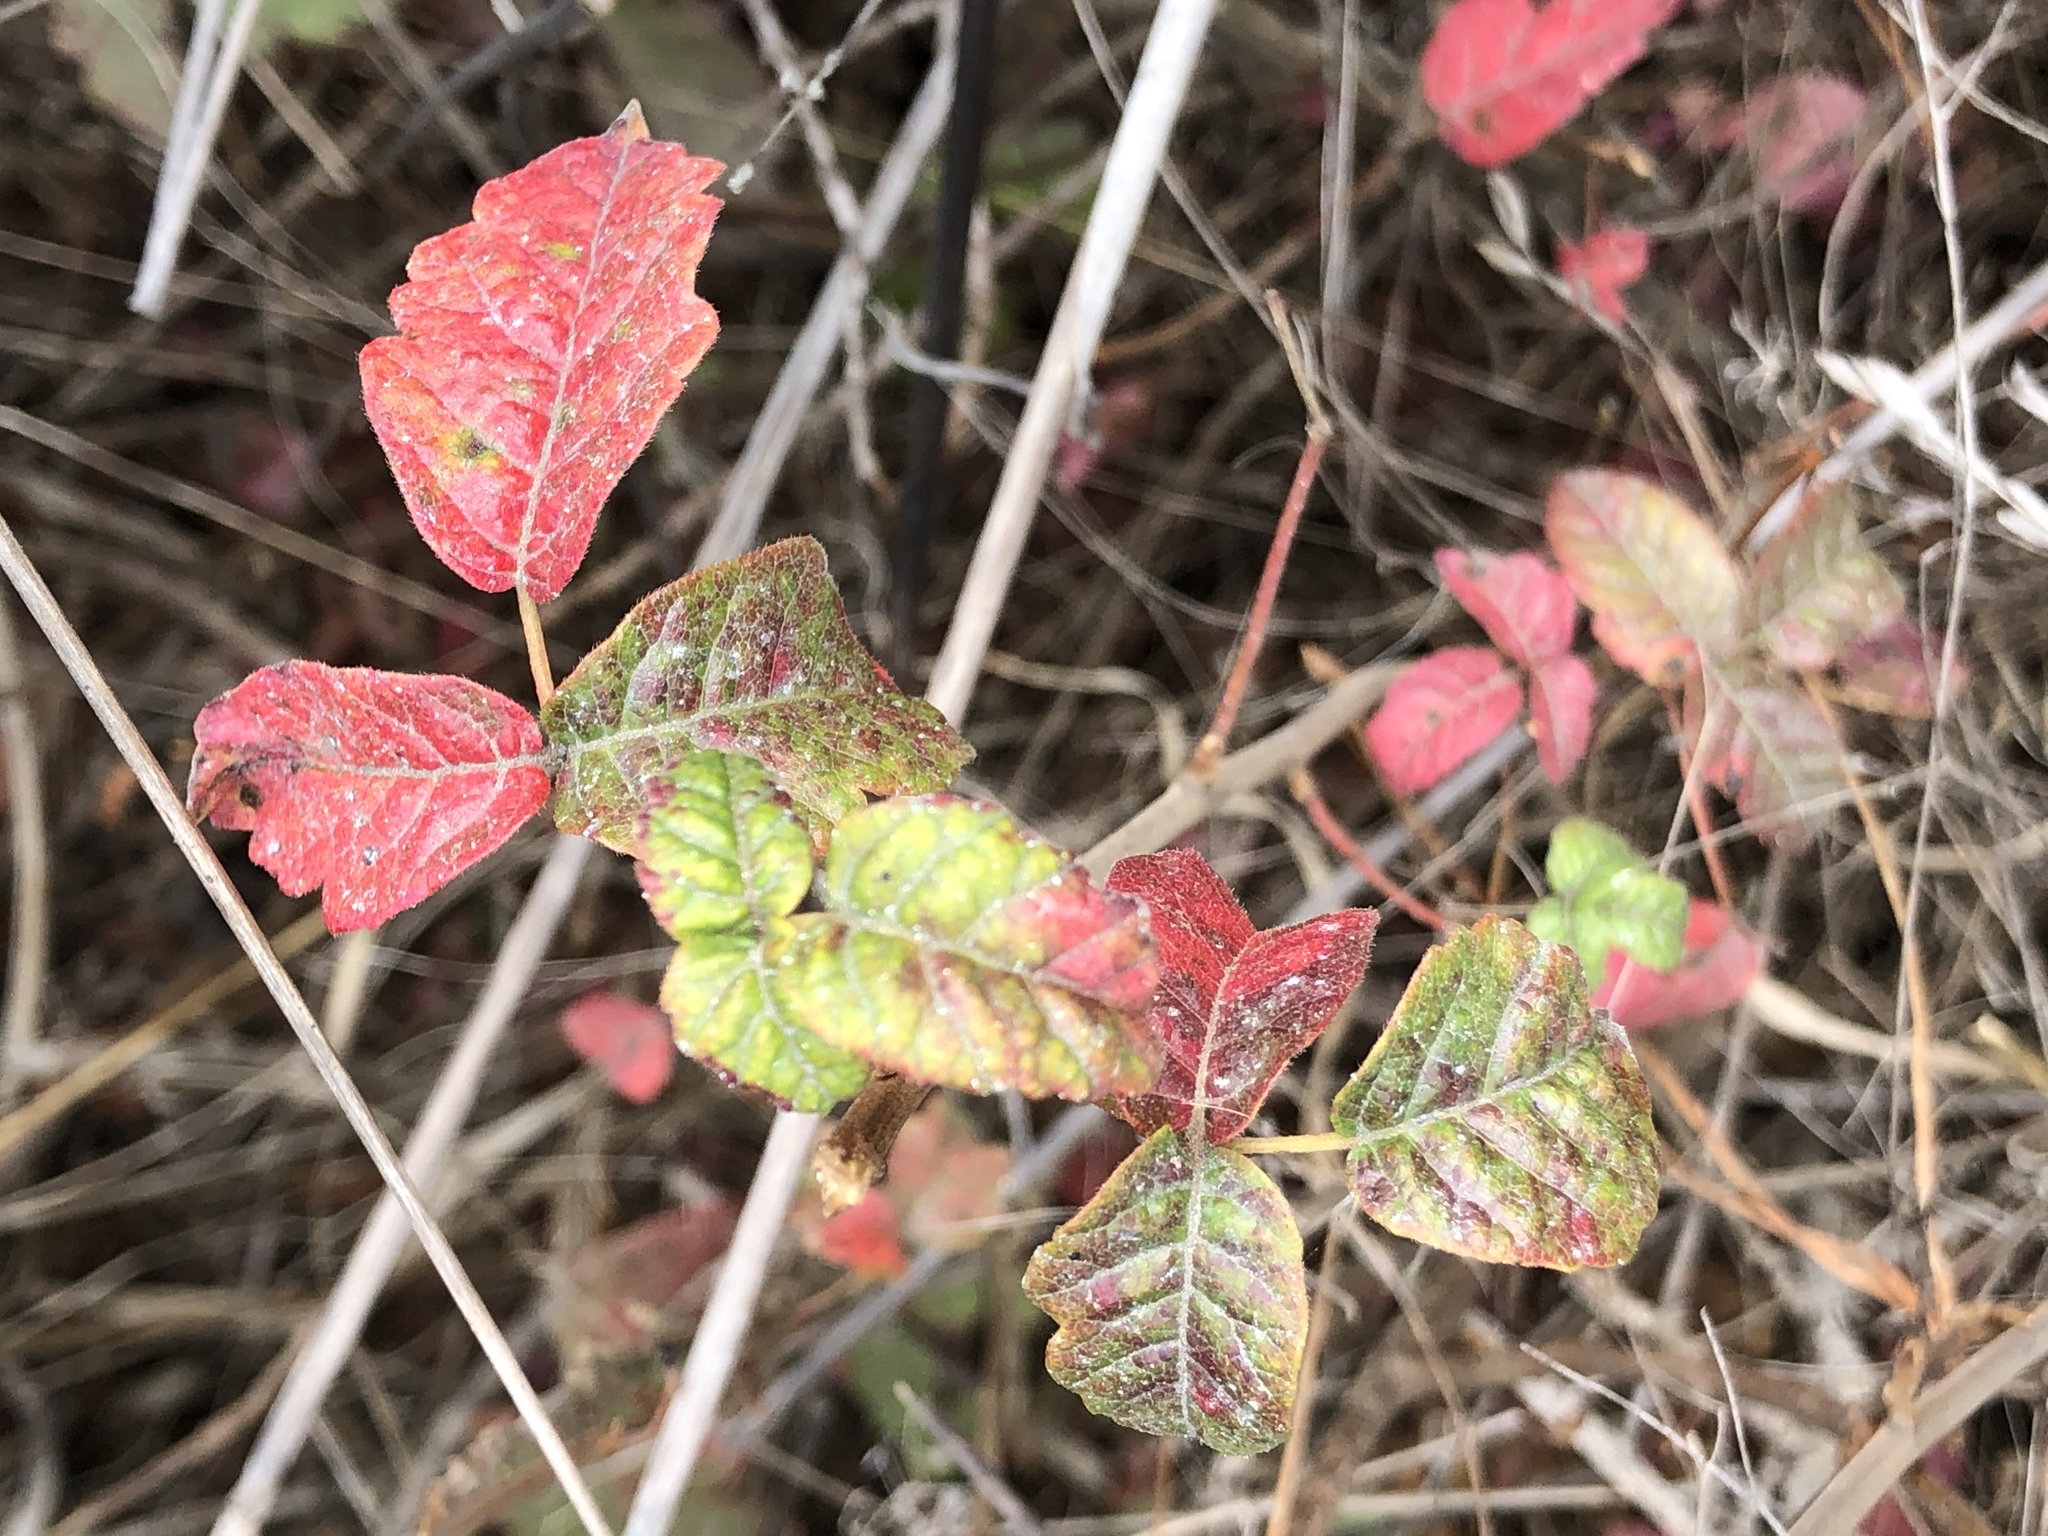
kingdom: Plantae
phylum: Tracheophyta
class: Magnoliopsida
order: Sapindales
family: Anacardiaceae
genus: Toxicodendron
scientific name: Toxicodendron diversilobum
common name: Pacific poison-oak
